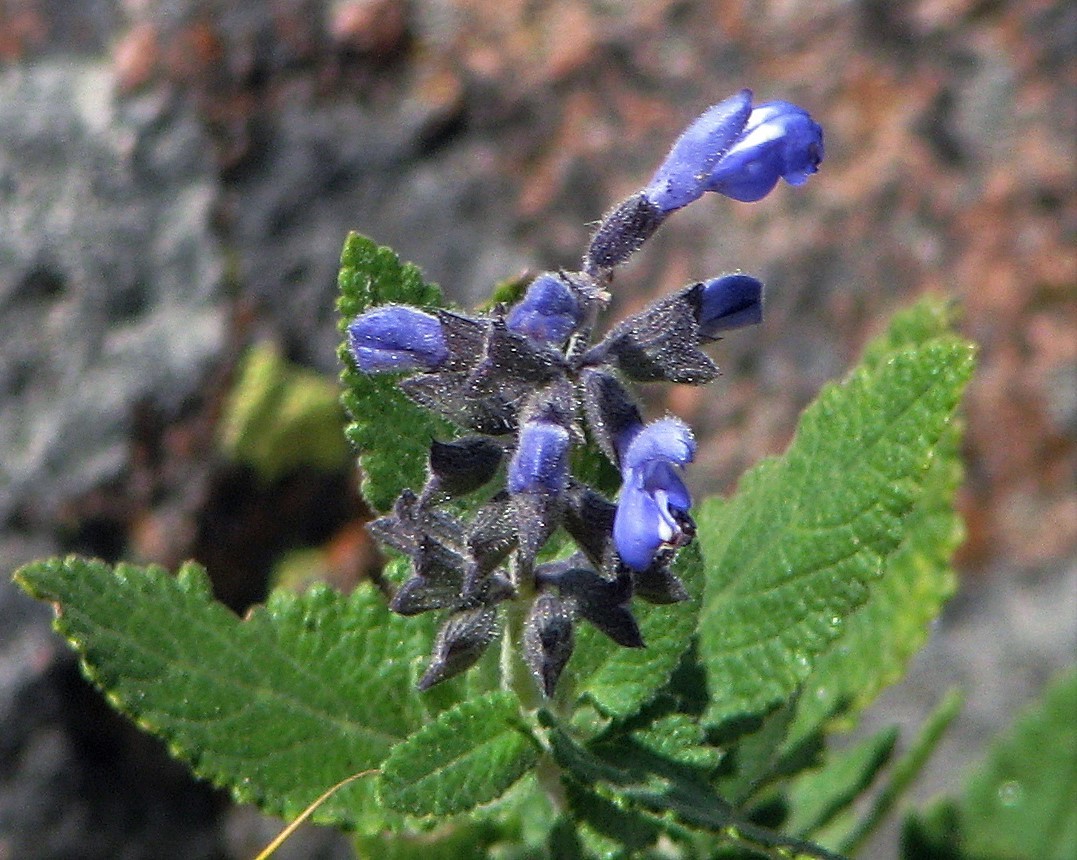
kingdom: Plantae
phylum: Tracheophyta
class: Magnoliopsida
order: Lamiales
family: Lamiaceae
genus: Salvia
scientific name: Salvia cuspidata
